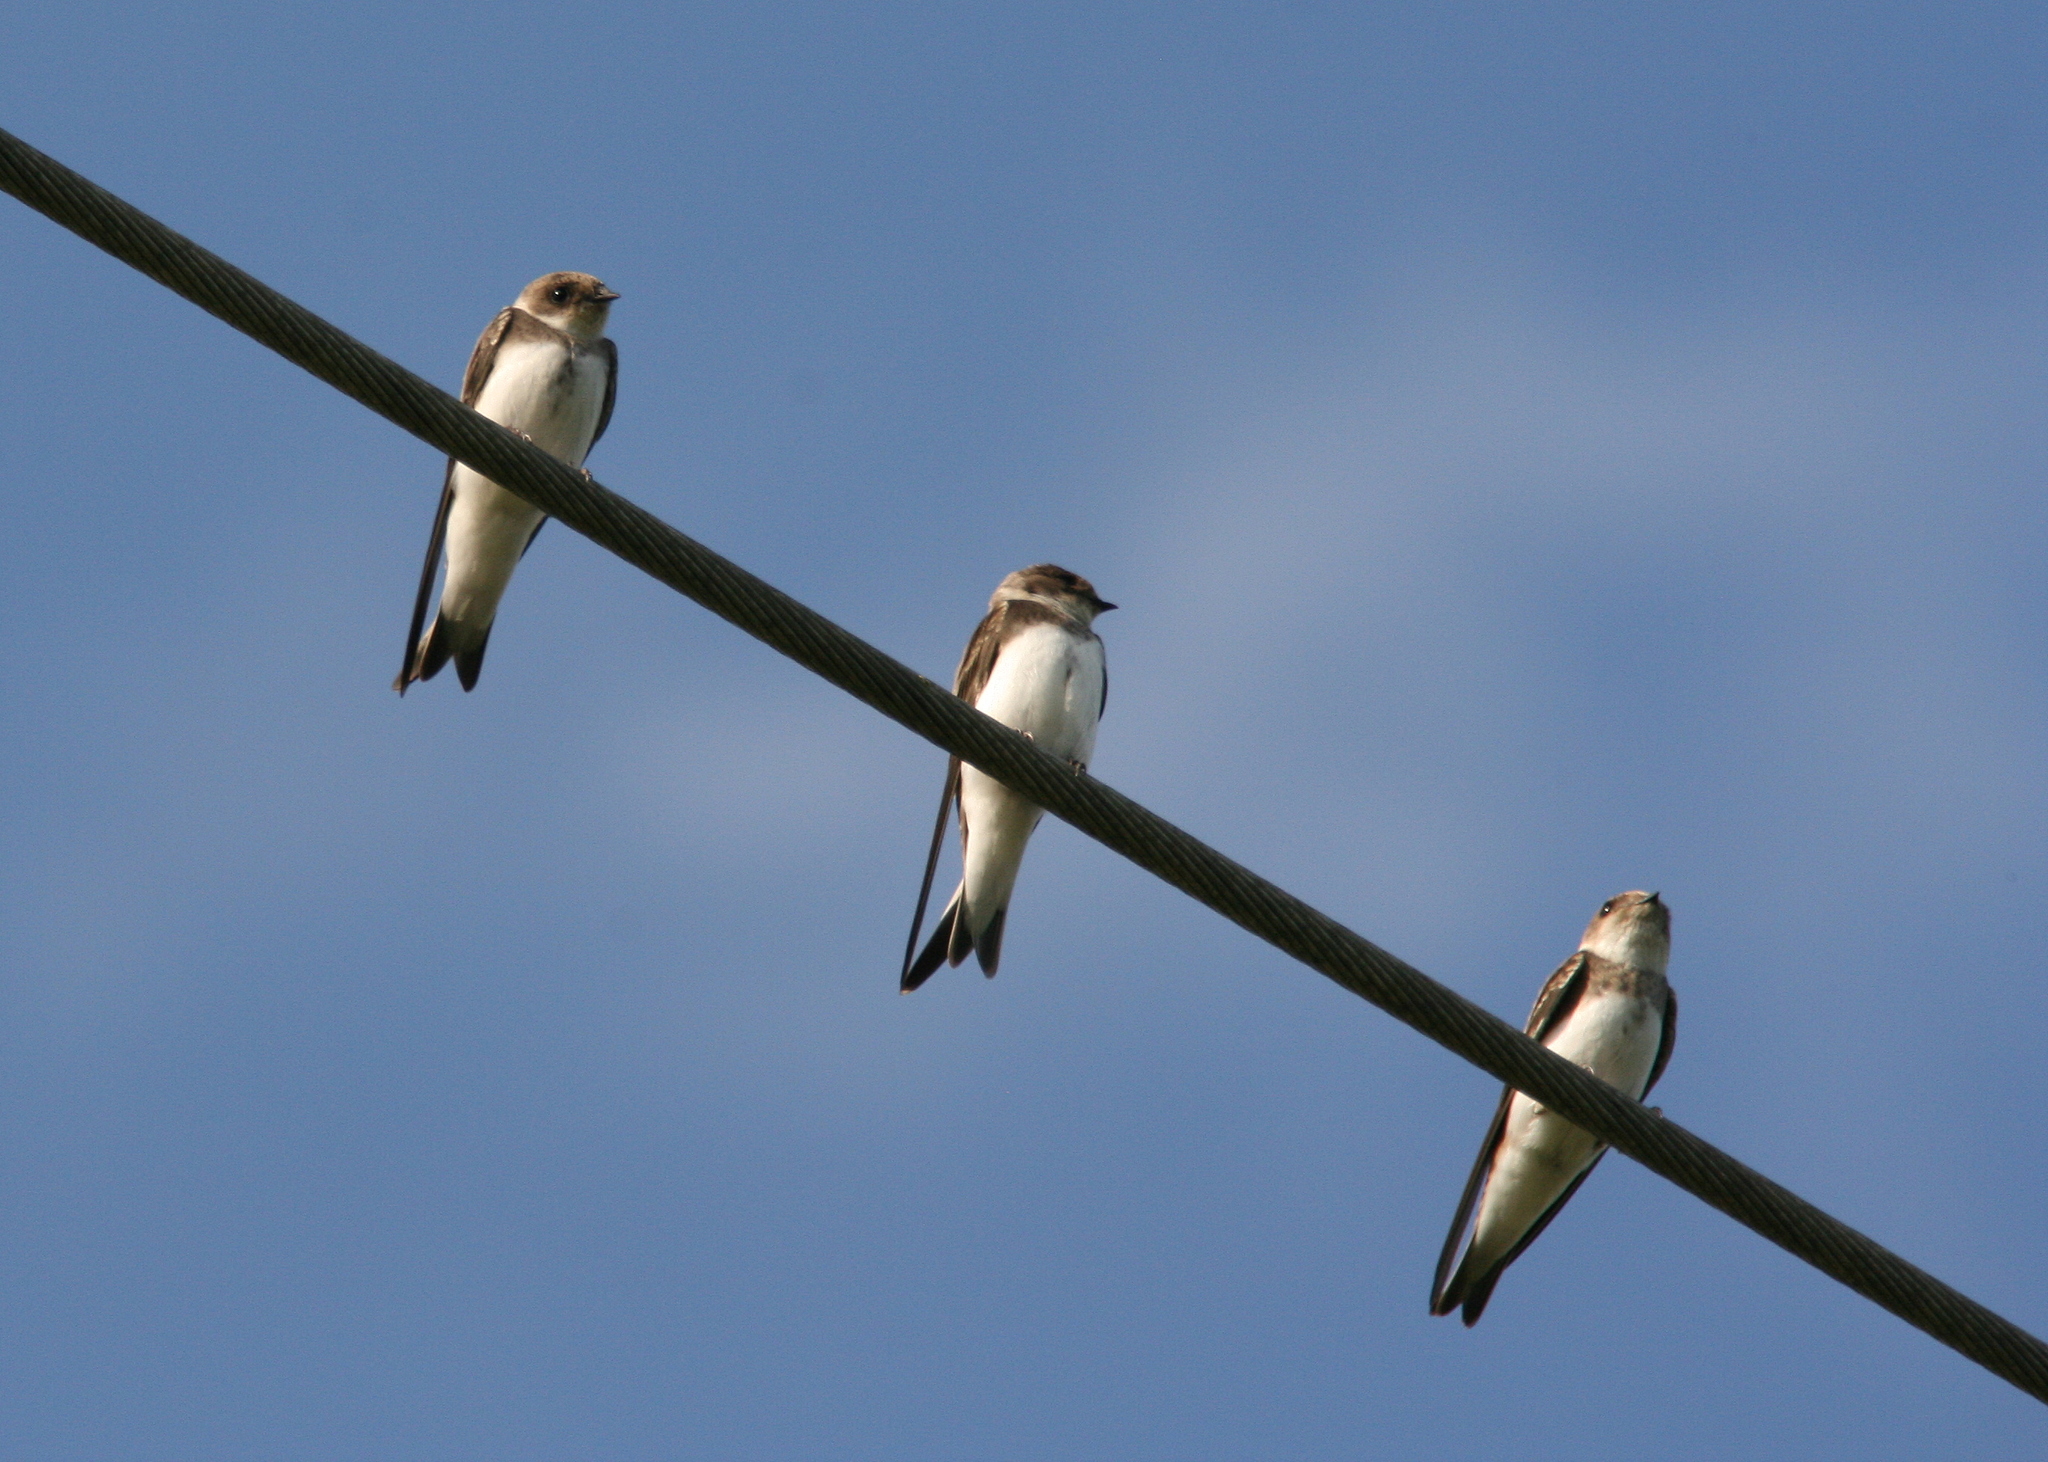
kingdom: Animalia
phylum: Chordata
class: Aves
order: Passeriformes
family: Hirundinidae
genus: Riparia
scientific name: Riparia riparia
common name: Sand martin
